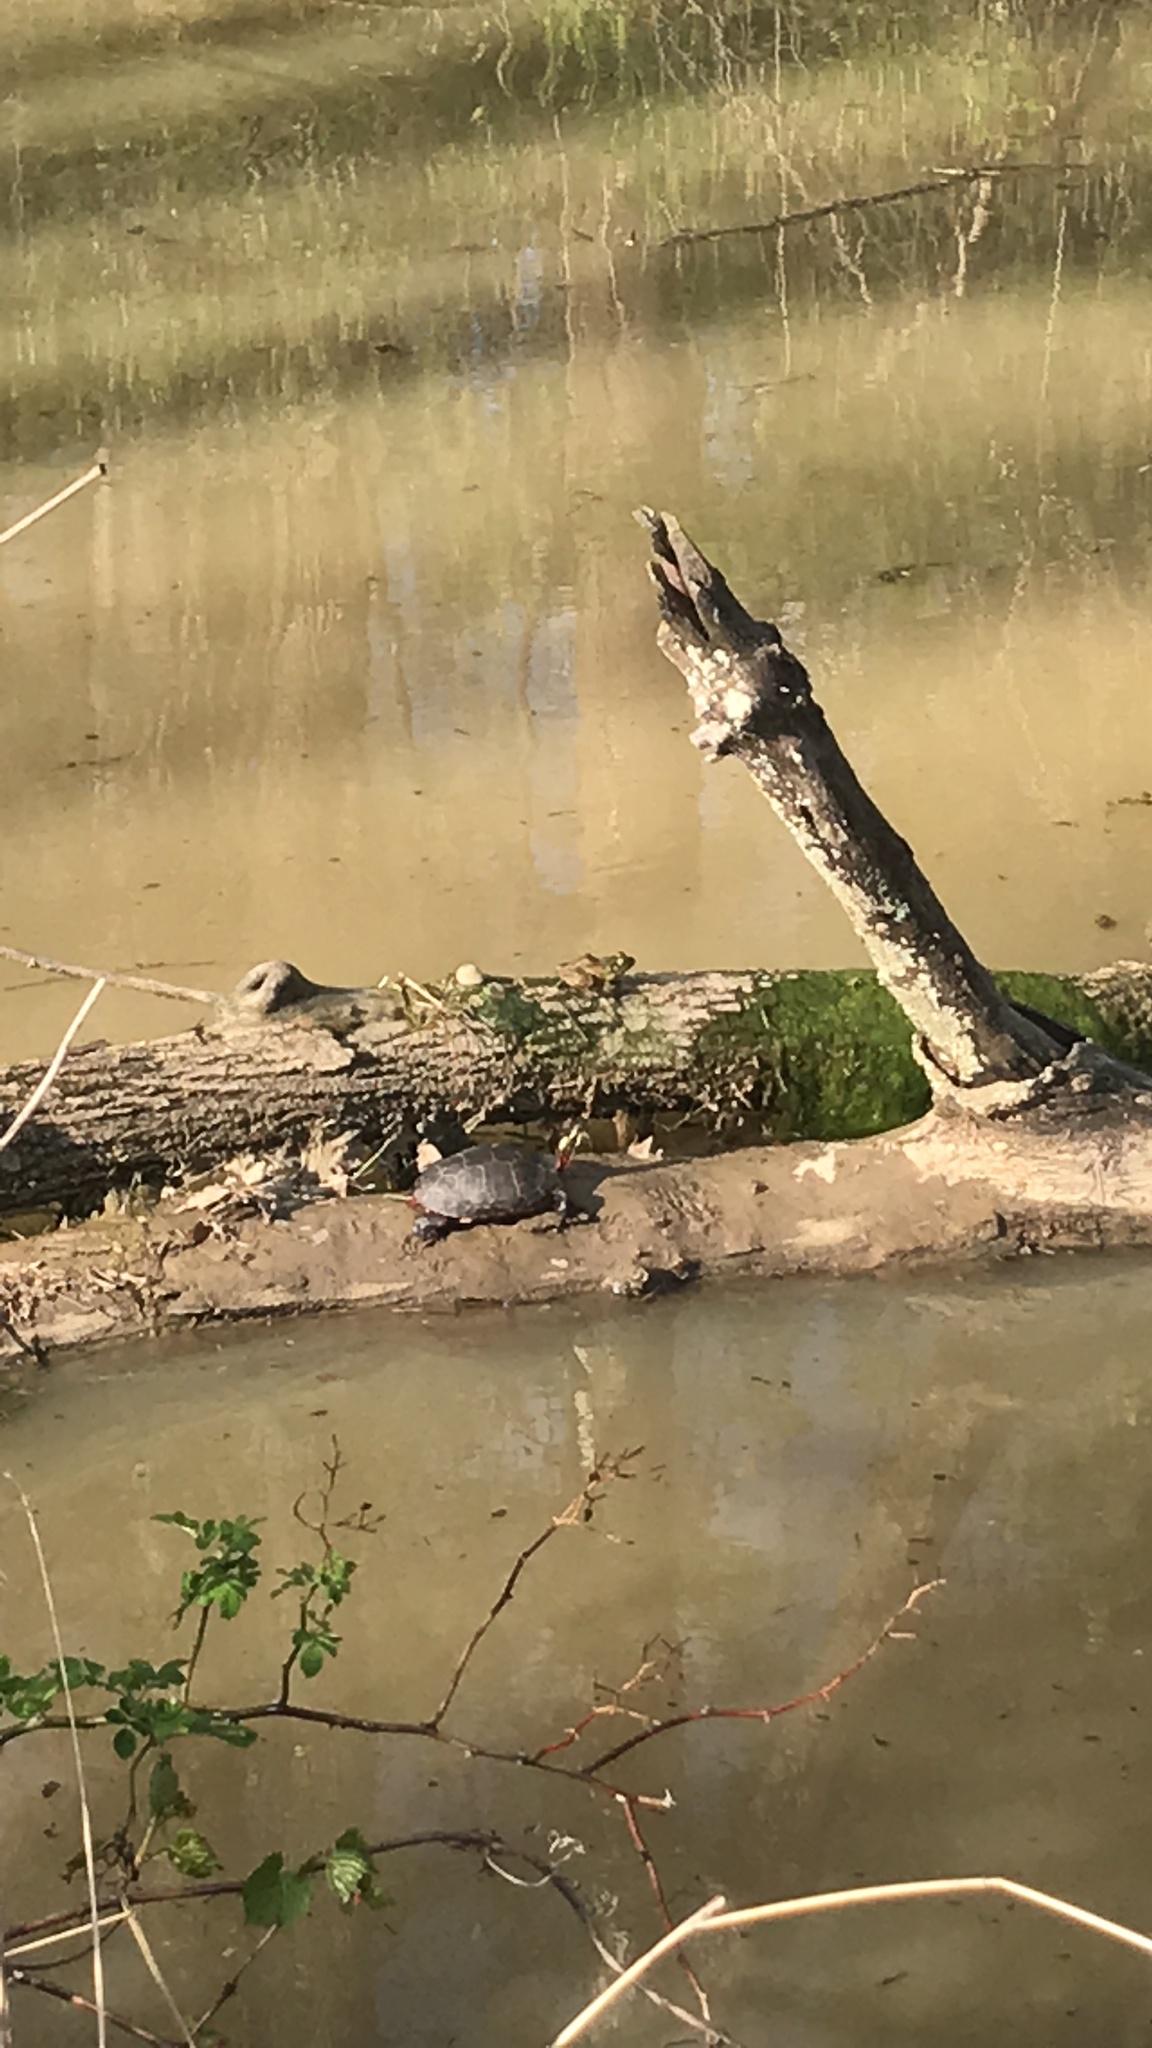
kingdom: Animalia
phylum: Chordata
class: Testudines
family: Emydidae
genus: Chrysemys
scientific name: Chrysemys picta
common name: Painted turtle
